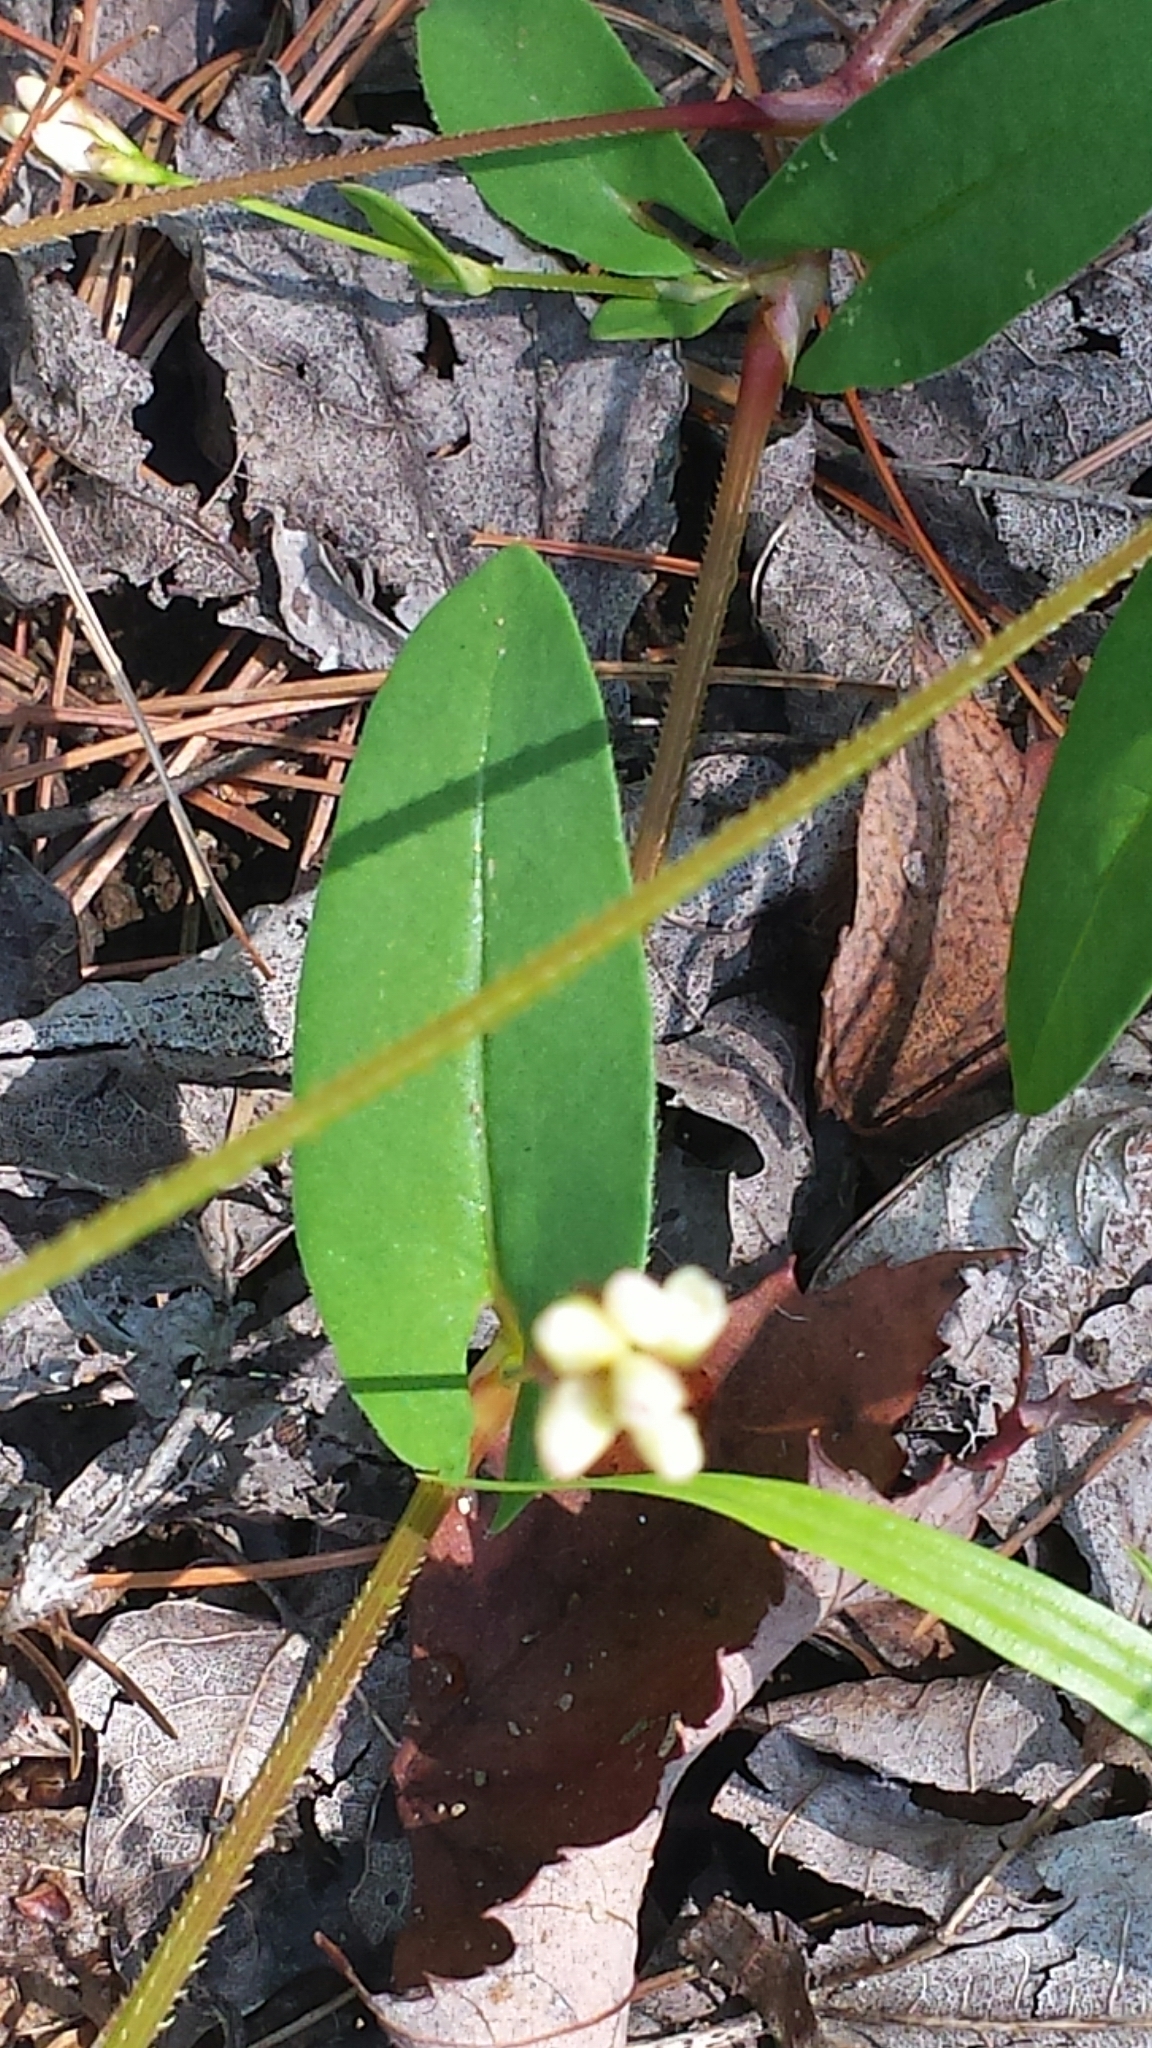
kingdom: Plantae
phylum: Tracheophyta
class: Magnoliopsida
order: Caryophyllales
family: Polygonaceae
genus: Persicaria
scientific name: Persicaria sagittata
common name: American tearthumb
